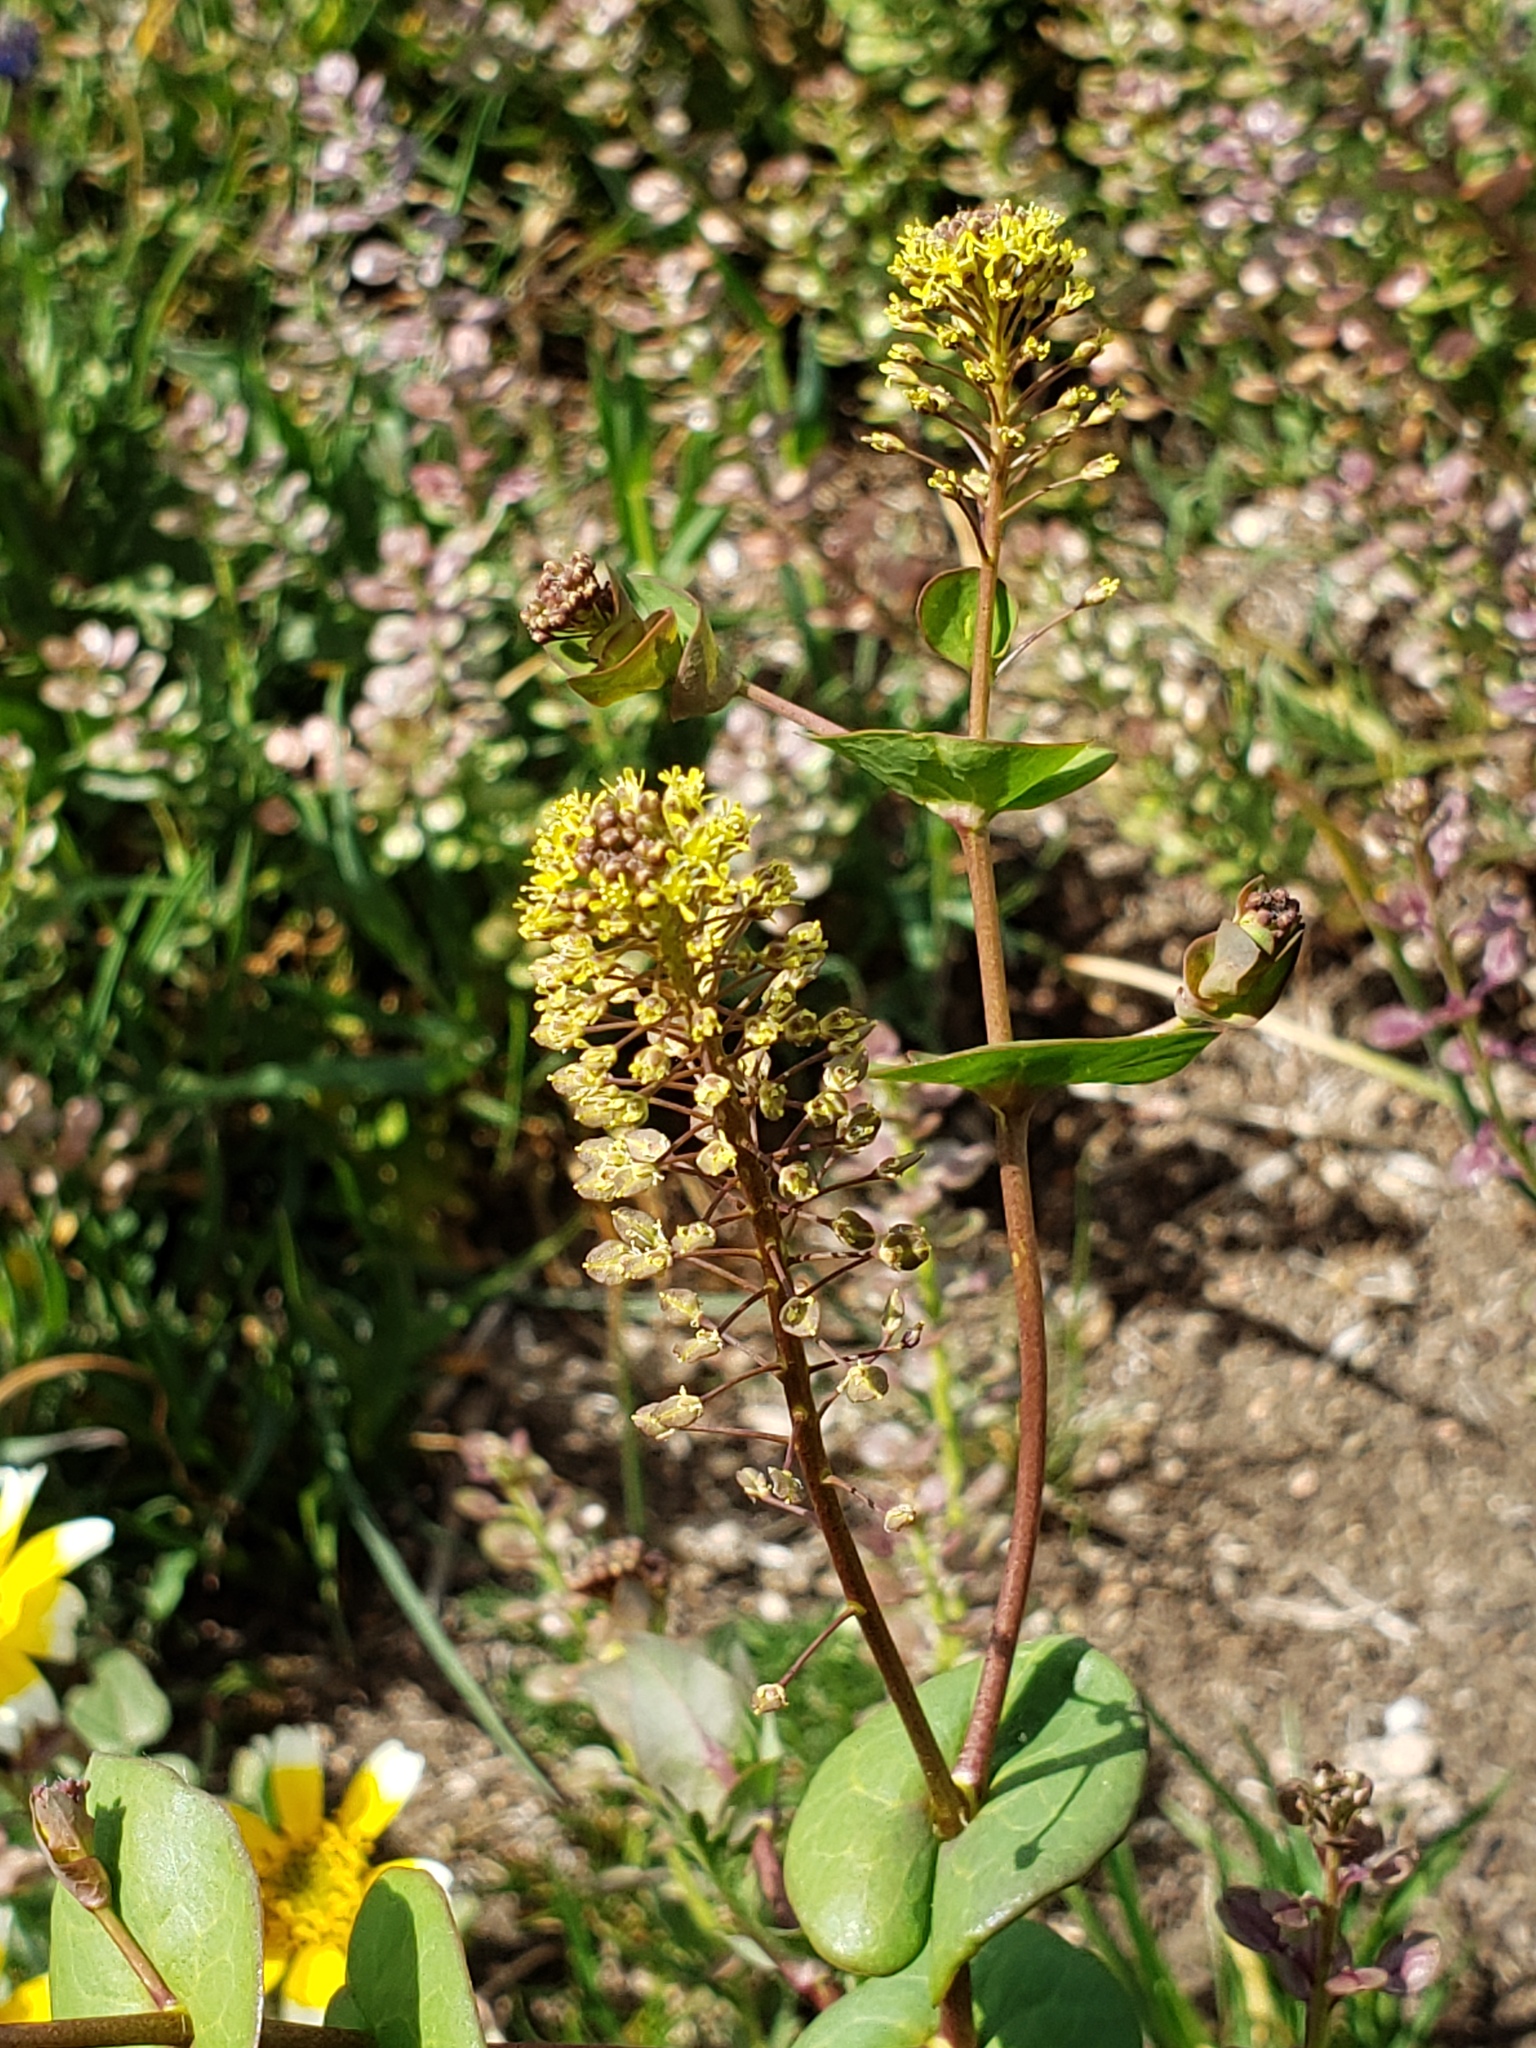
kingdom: Plantae
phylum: Tracheophyta
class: Magnoliopsida
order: Brassicales
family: Brassicaceae
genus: Lepidium
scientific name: Lepidium perfoliatum
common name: Perfoliate pepperwort
